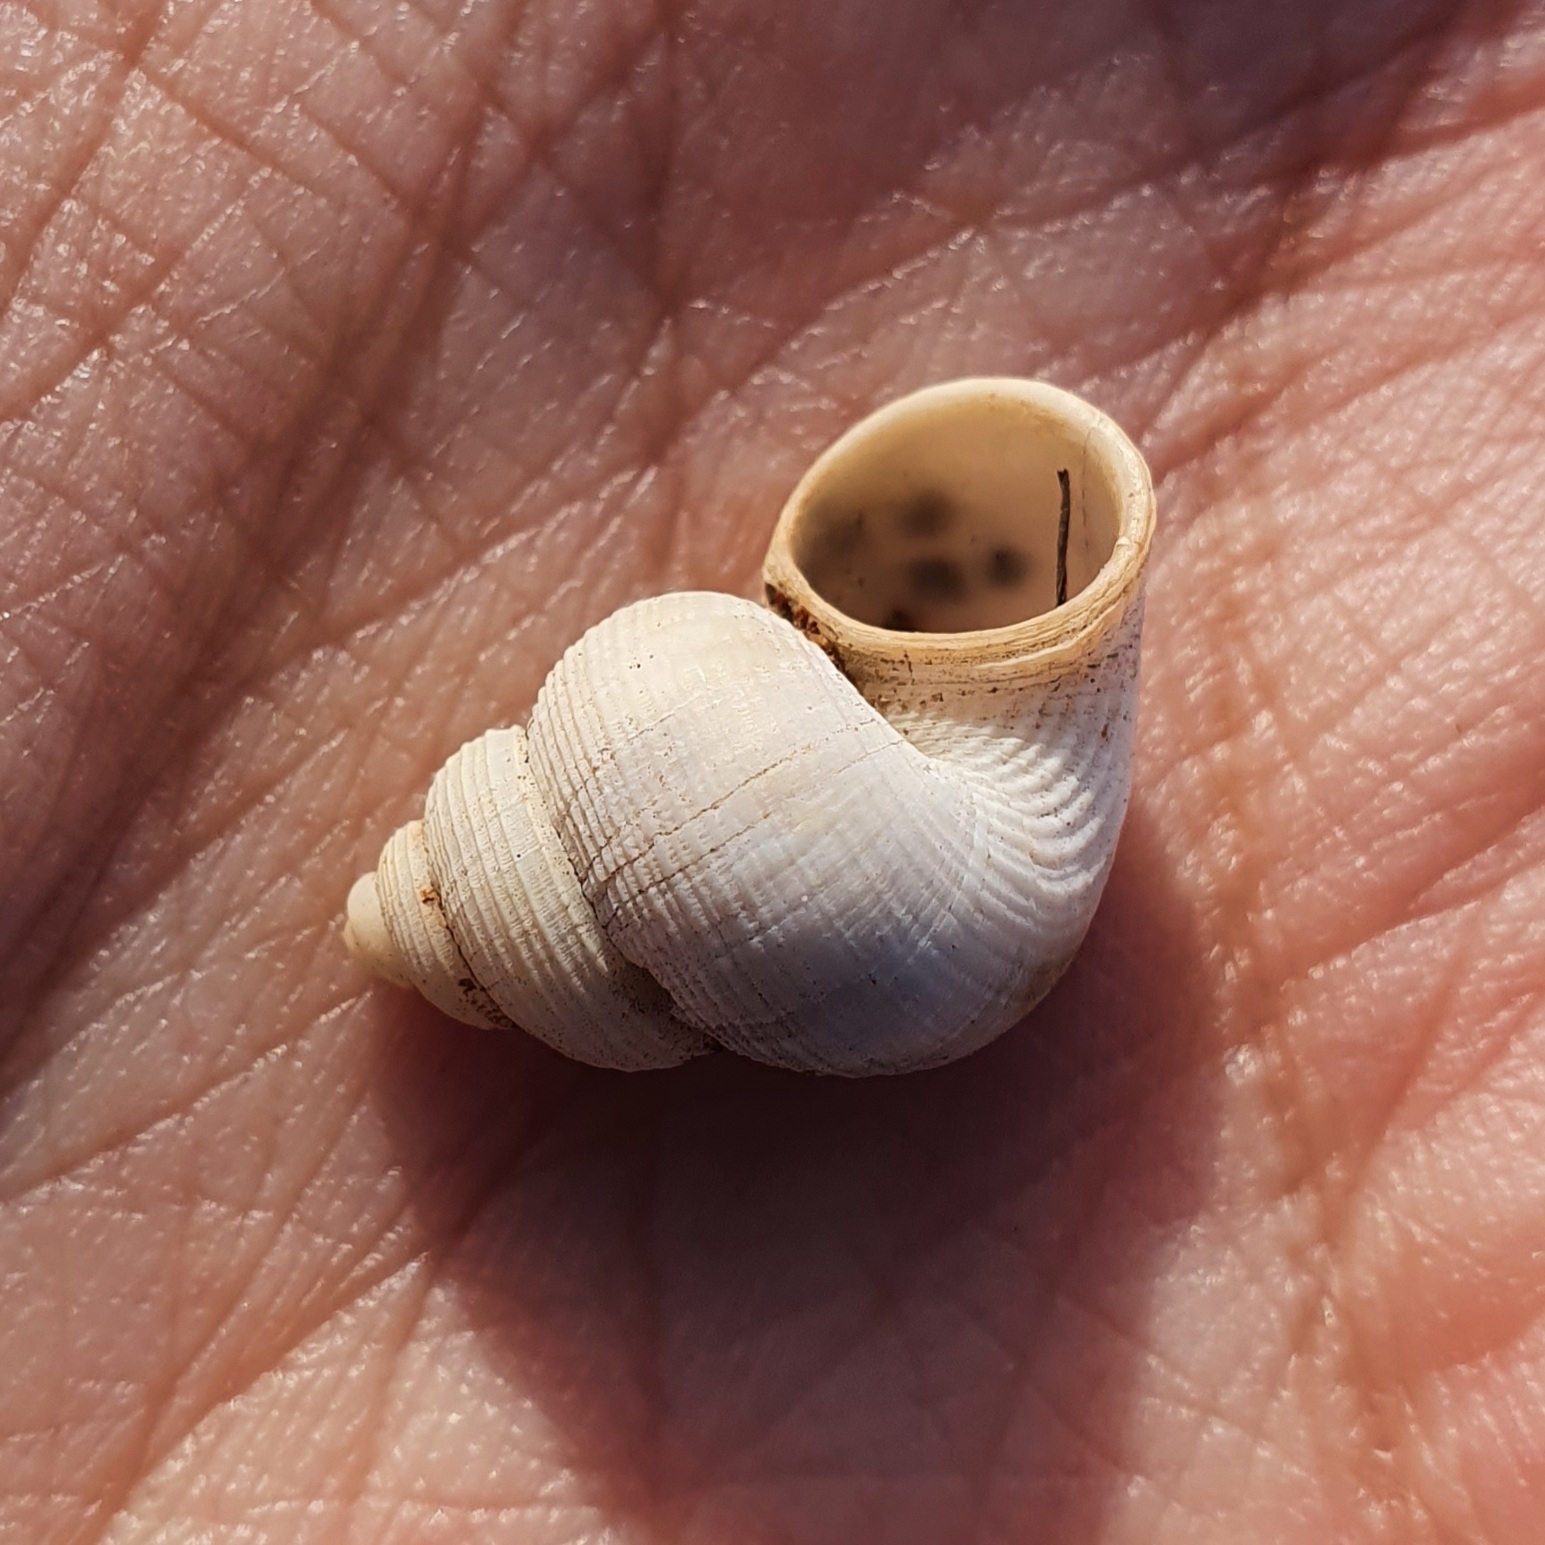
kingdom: Animalia
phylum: Mollusca
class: Gastropoda
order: Littorinimorpha
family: Pomatiidae
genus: Tudorella
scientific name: Tudorella sulcata
